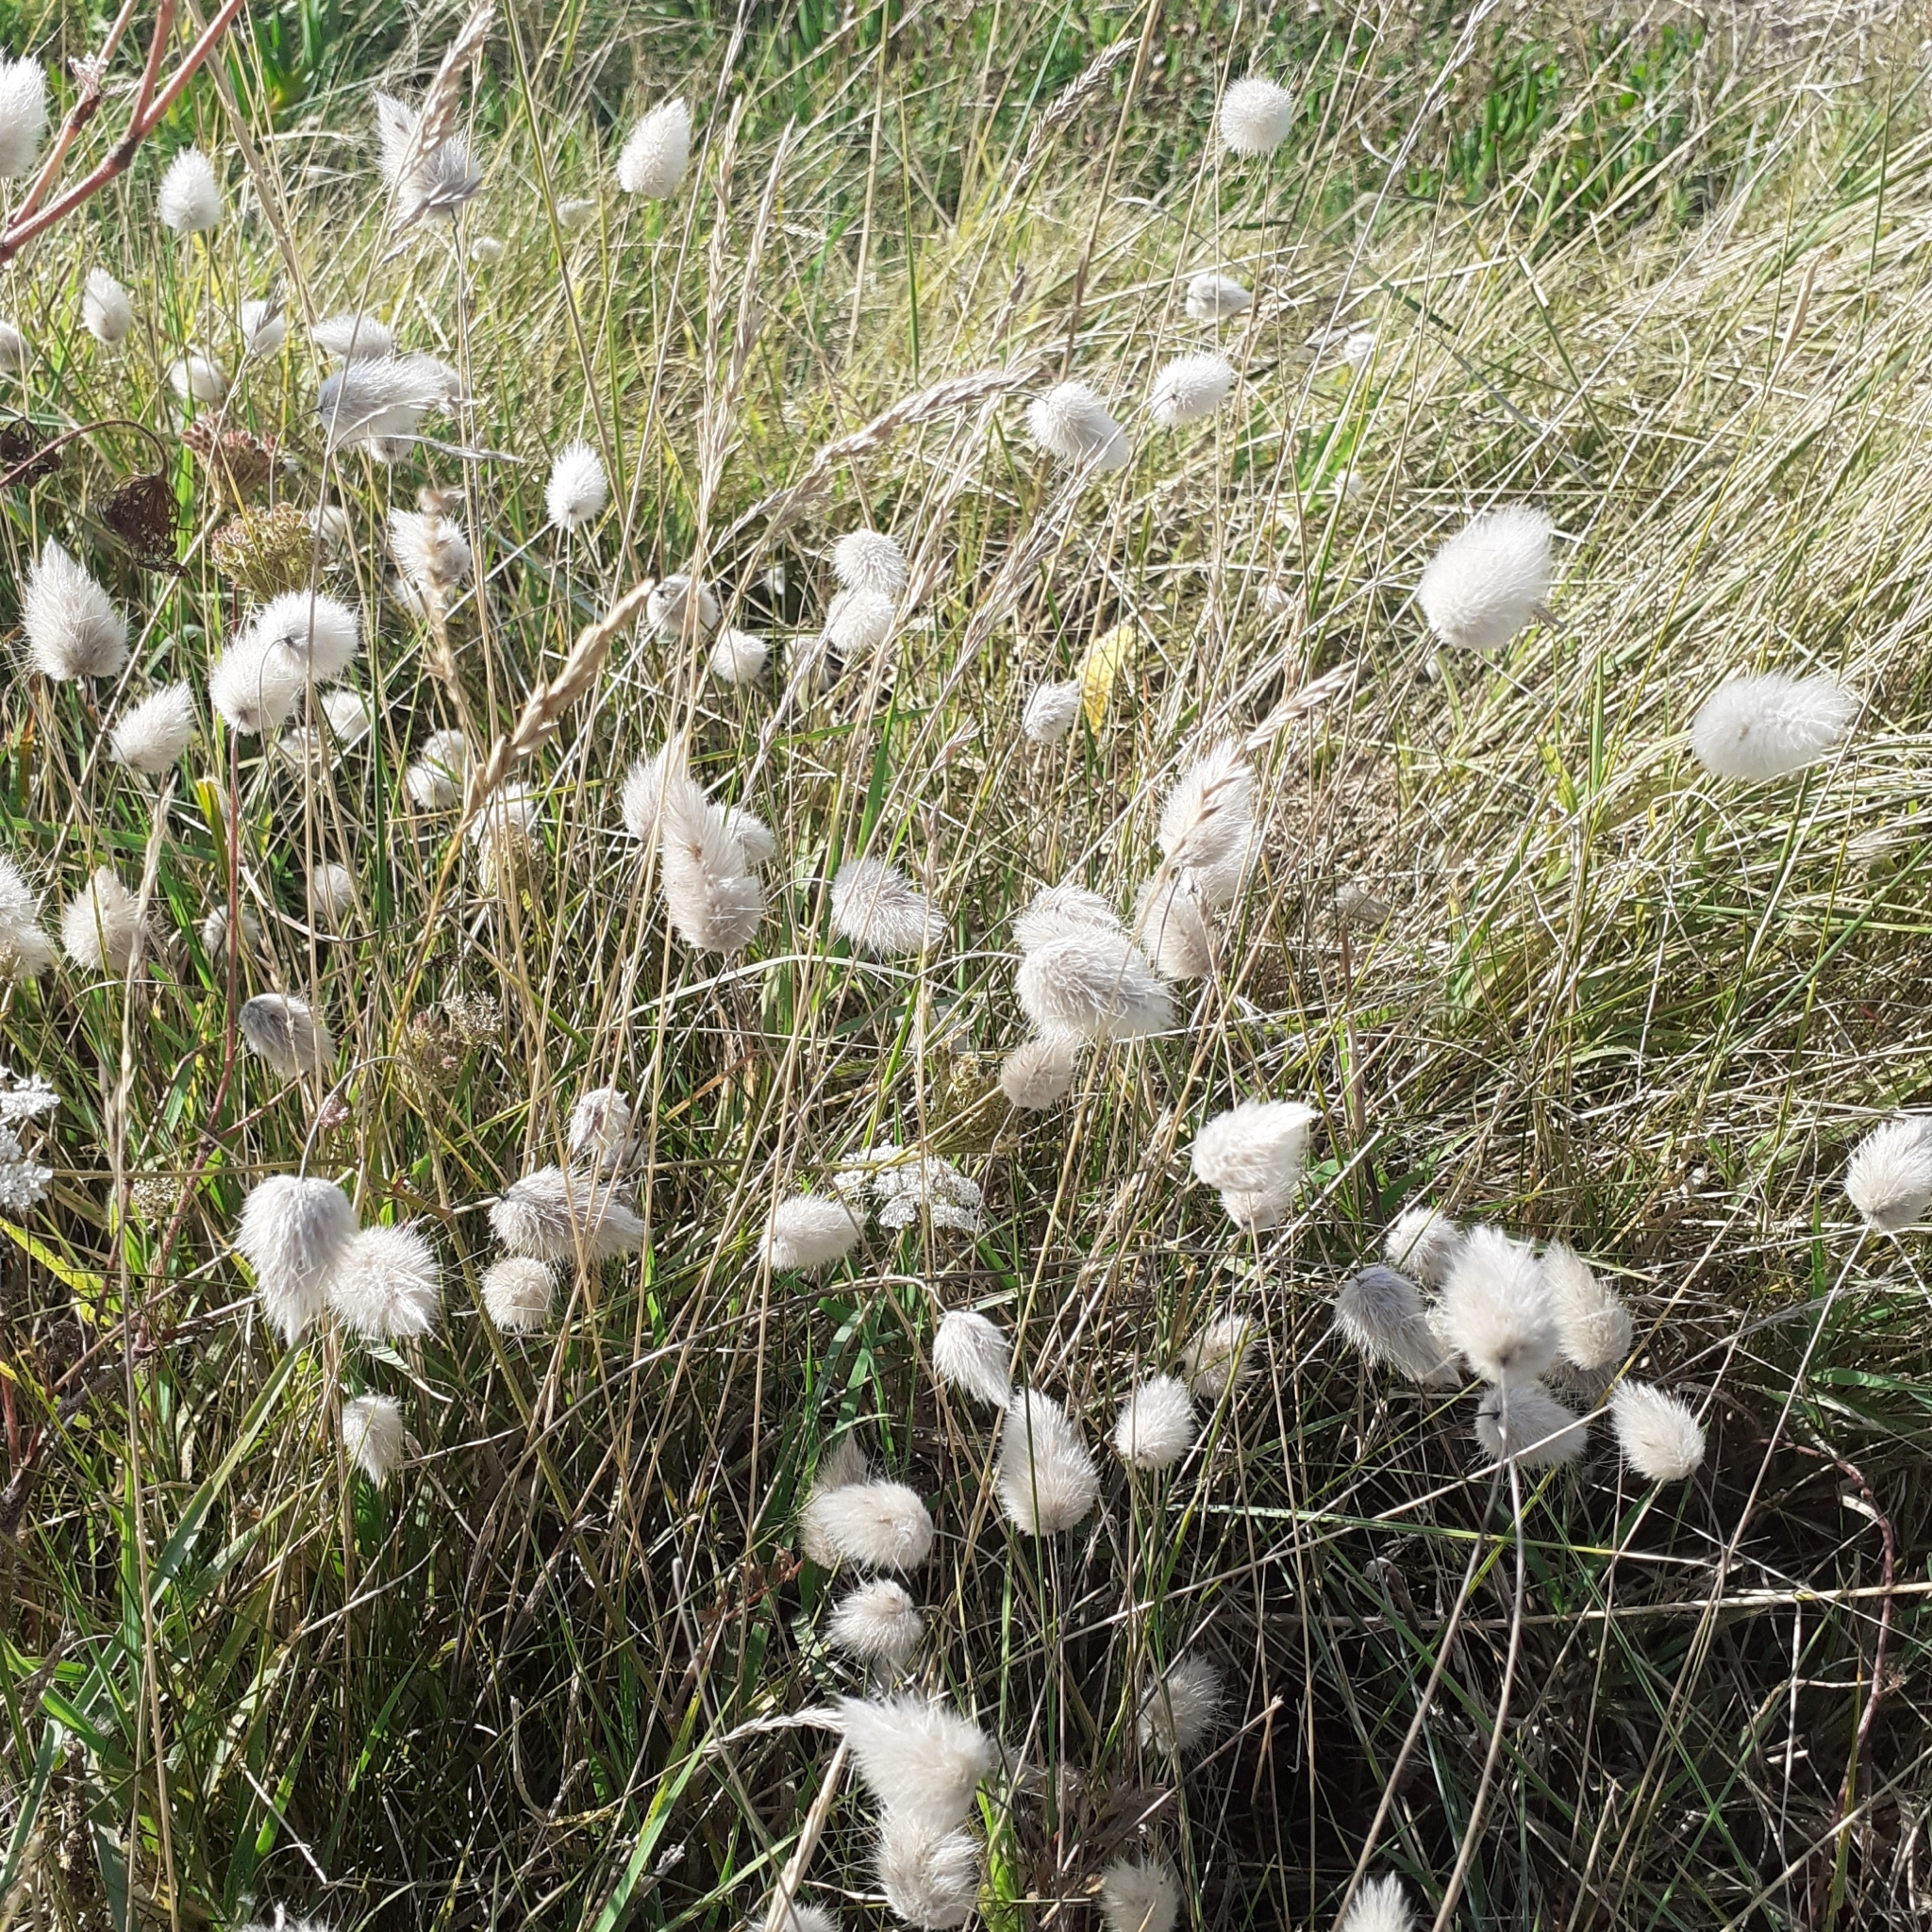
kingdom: Plantae
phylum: Tracheophyta
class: Liliopsida
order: Poales
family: Poaceae
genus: Lagurus
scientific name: Lagurus ovatus
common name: Hare's-tail
